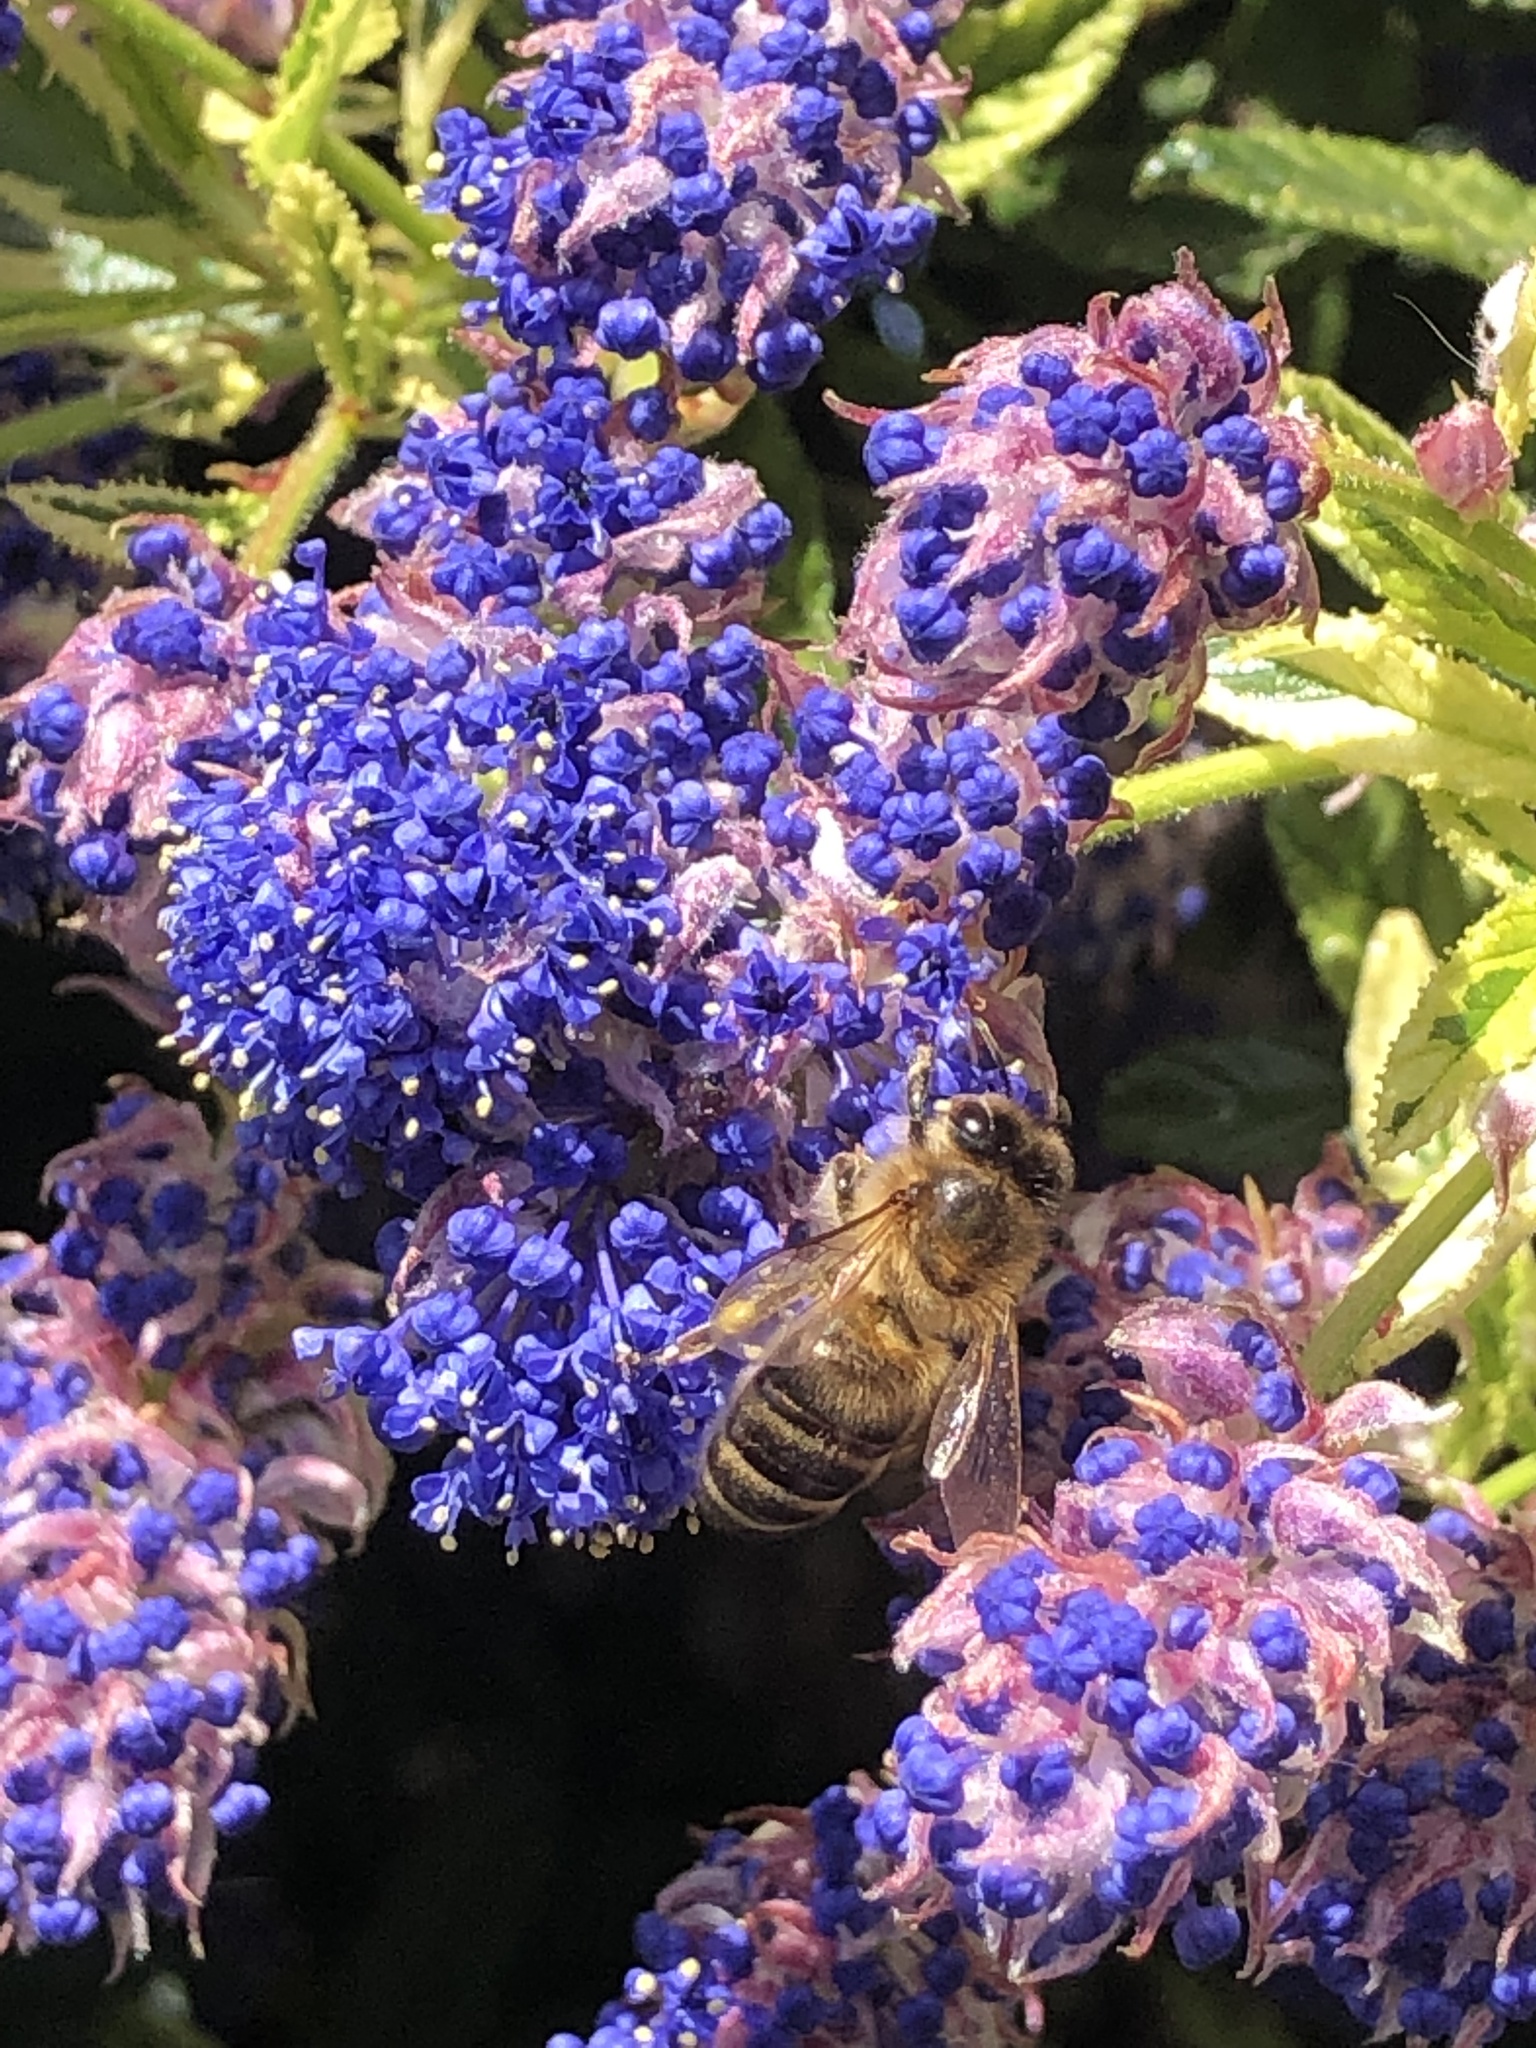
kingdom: Animalia
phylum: Arthropoda
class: Insecta
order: Hymenoptera
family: Apidae
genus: Apis
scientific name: Apis mellifera
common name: Honey bee
